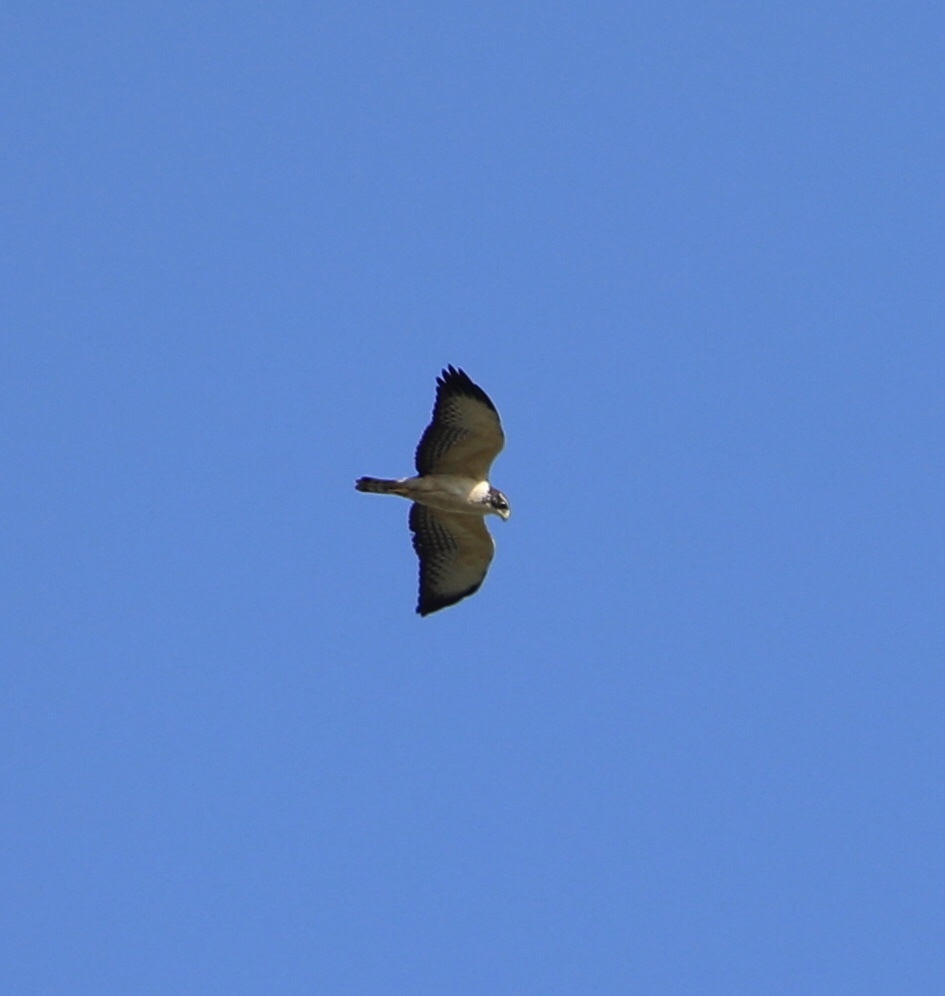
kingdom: Animalia
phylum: Chordata
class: Aves
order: Accipitriformes
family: Accipitridae
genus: Buteo
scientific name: Buteo brachyurus
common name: Short-tailed hawk
